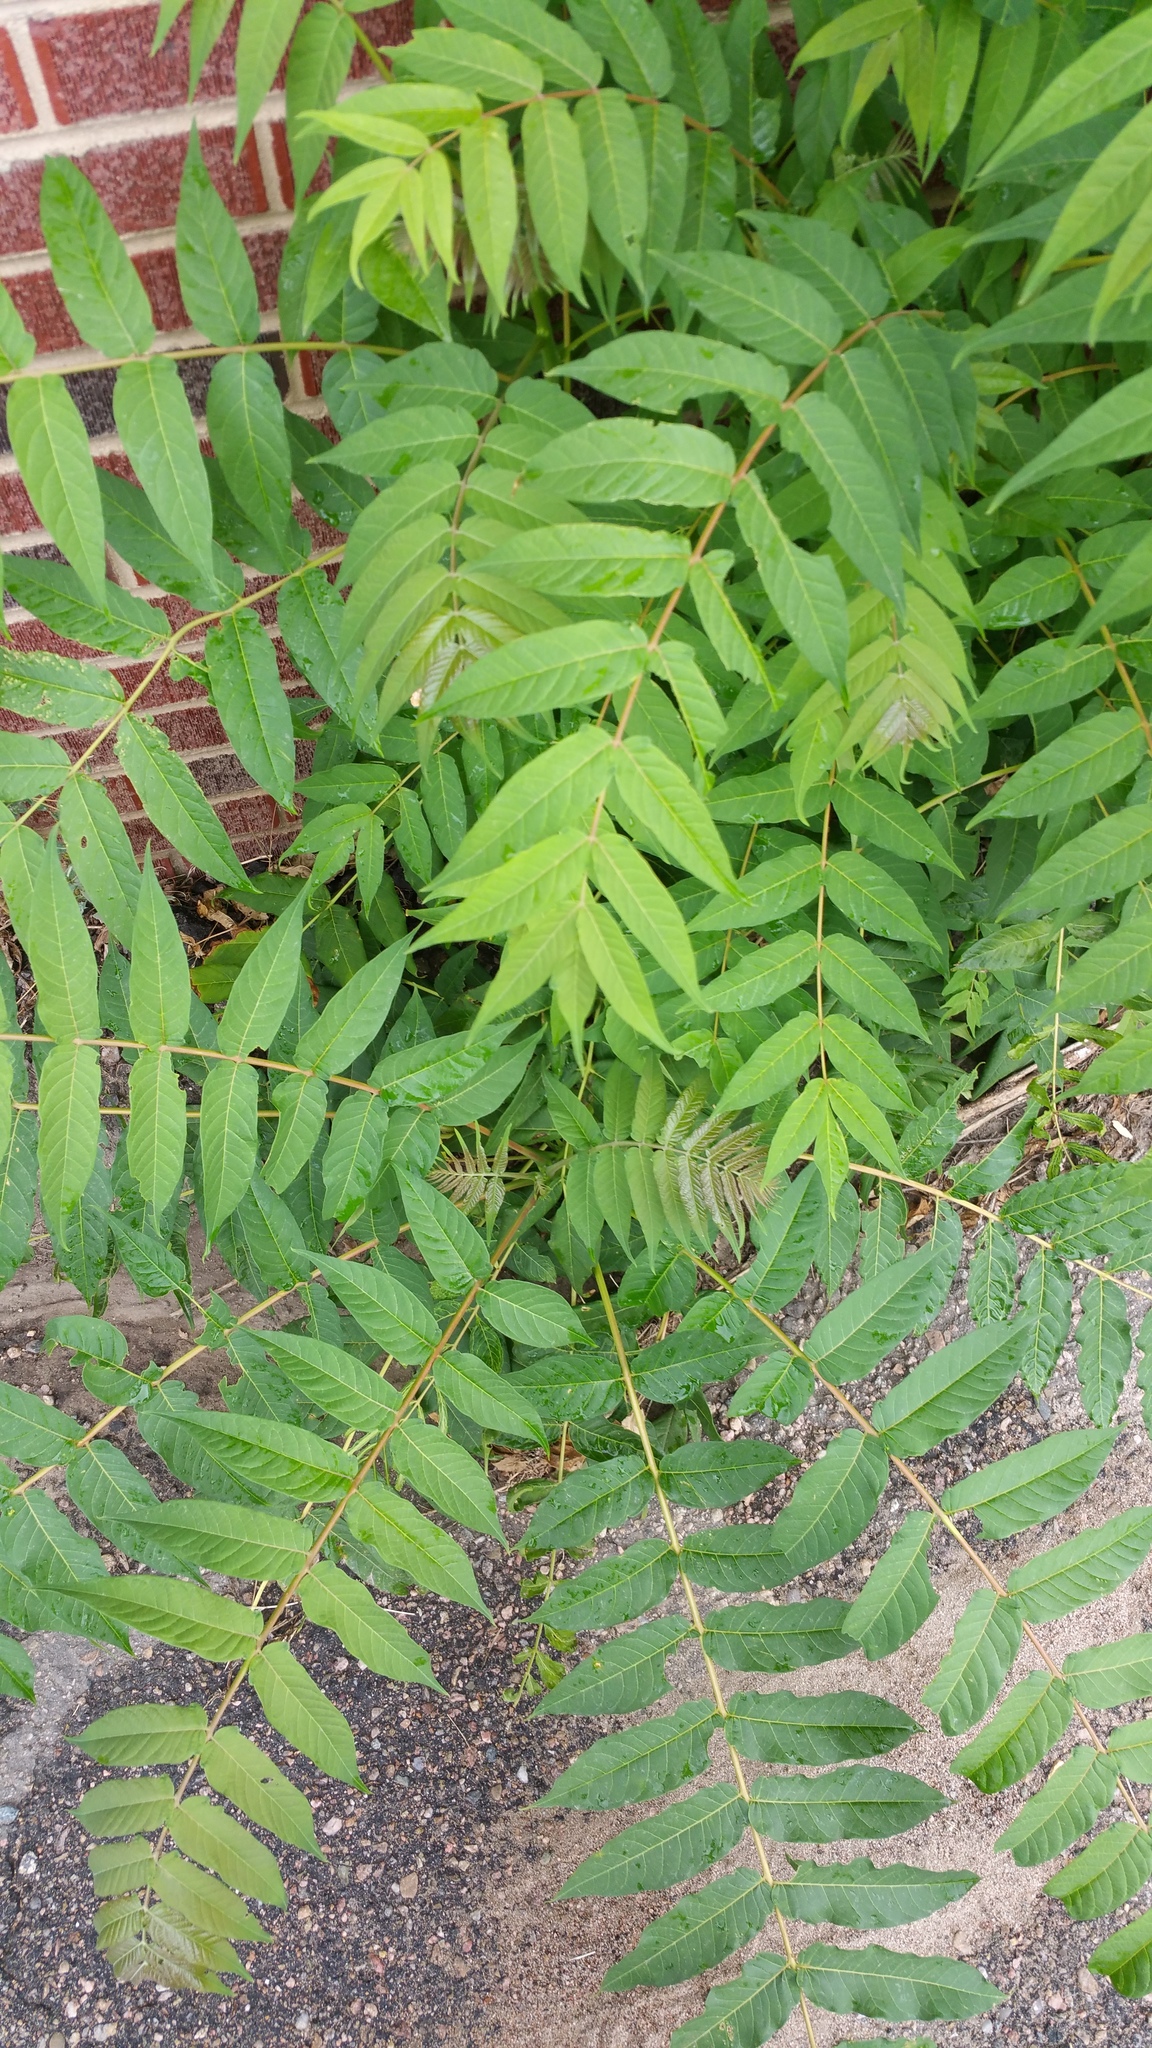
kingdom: Plantae
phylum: Tracheophyta
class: Magnoliopsida
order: Sapindales
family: Simaroubaceae
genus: Ailanthus
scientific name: Ailanthus altissima
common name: Tree-of-heaven
